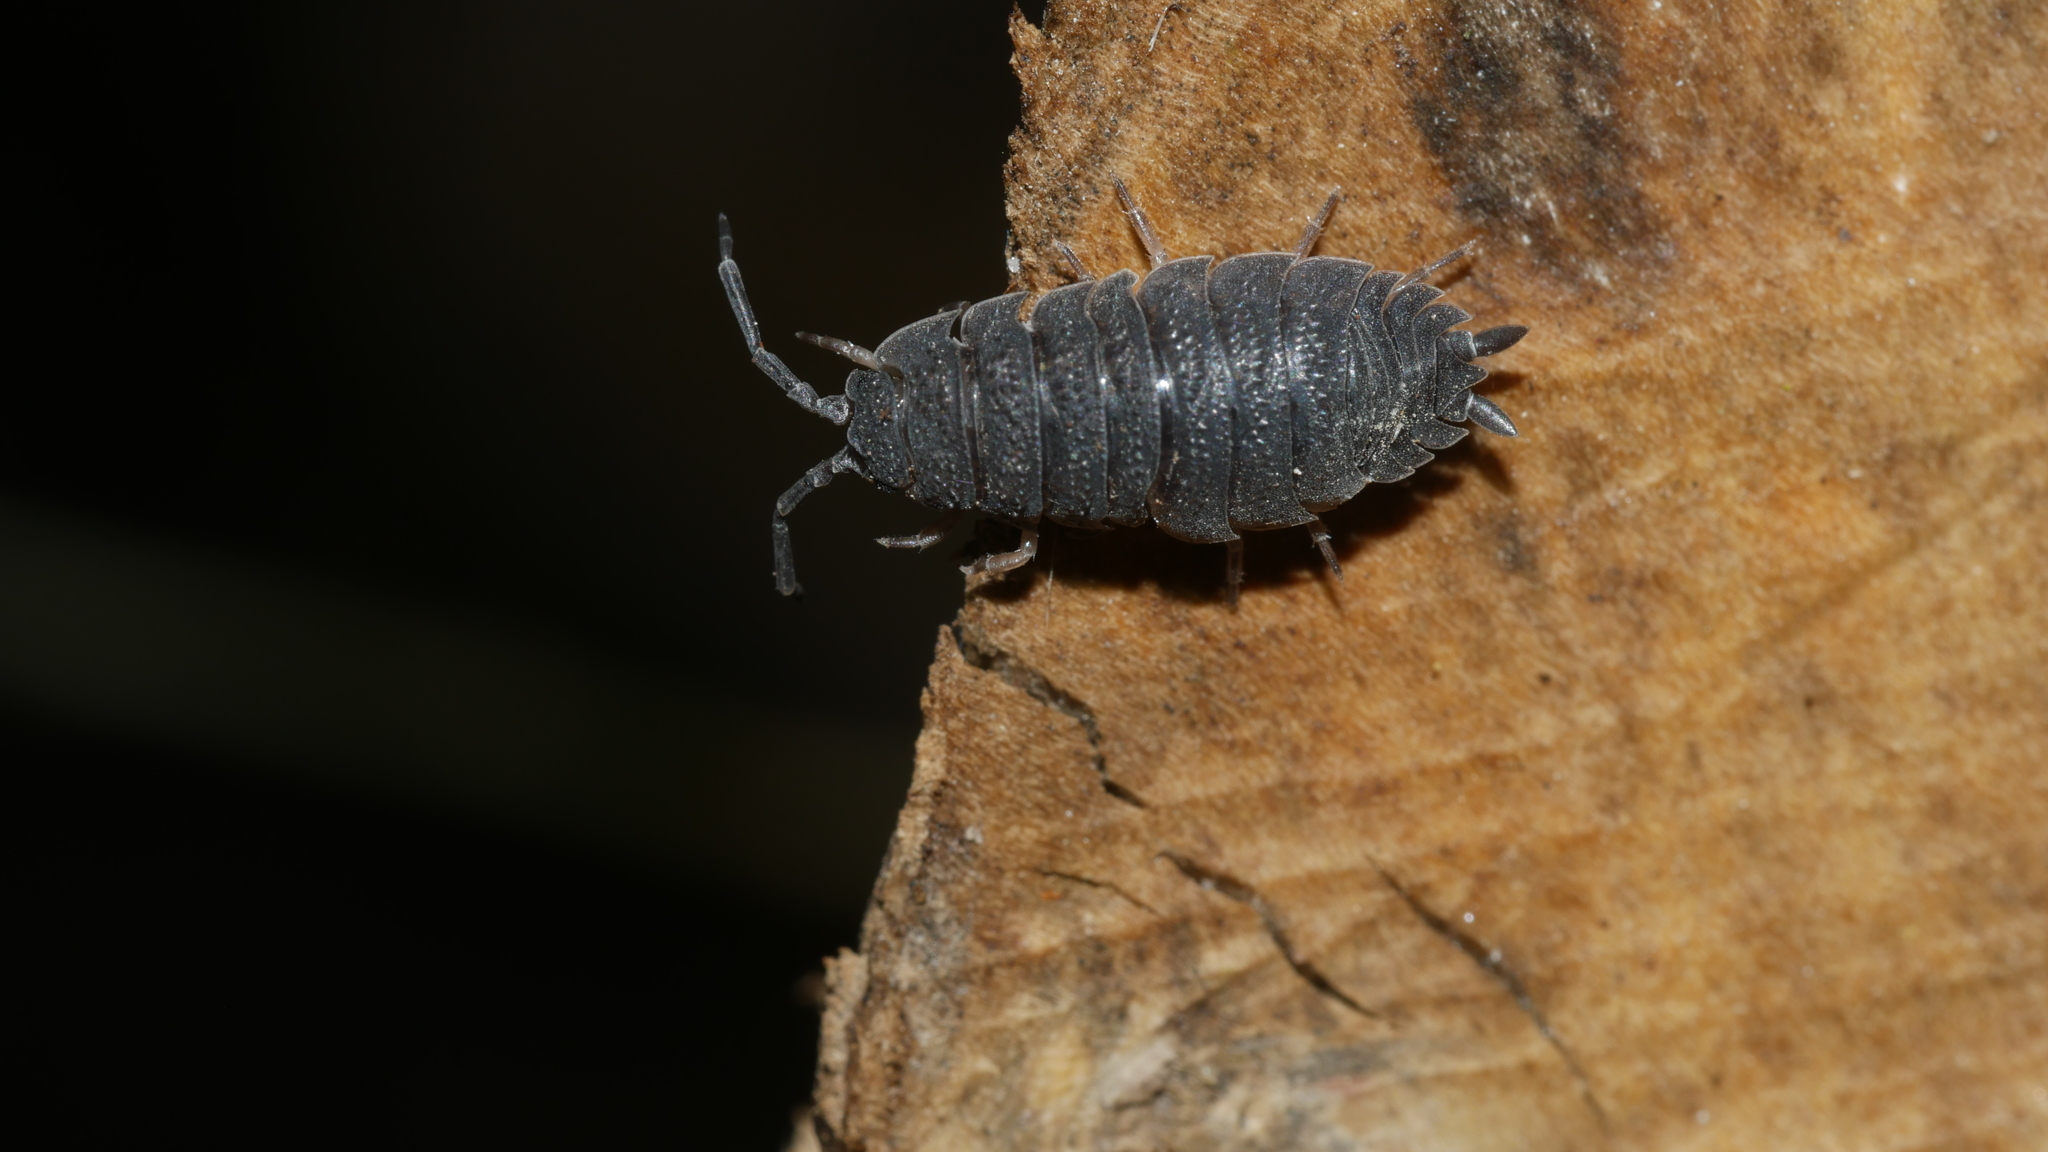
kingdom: Animalia
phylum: Arthropoda
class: Malacostraca
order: Isopoda
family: Porcellionidae
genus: Porcellio
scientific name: Porcellio scaber
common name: Common rough woodlouse
